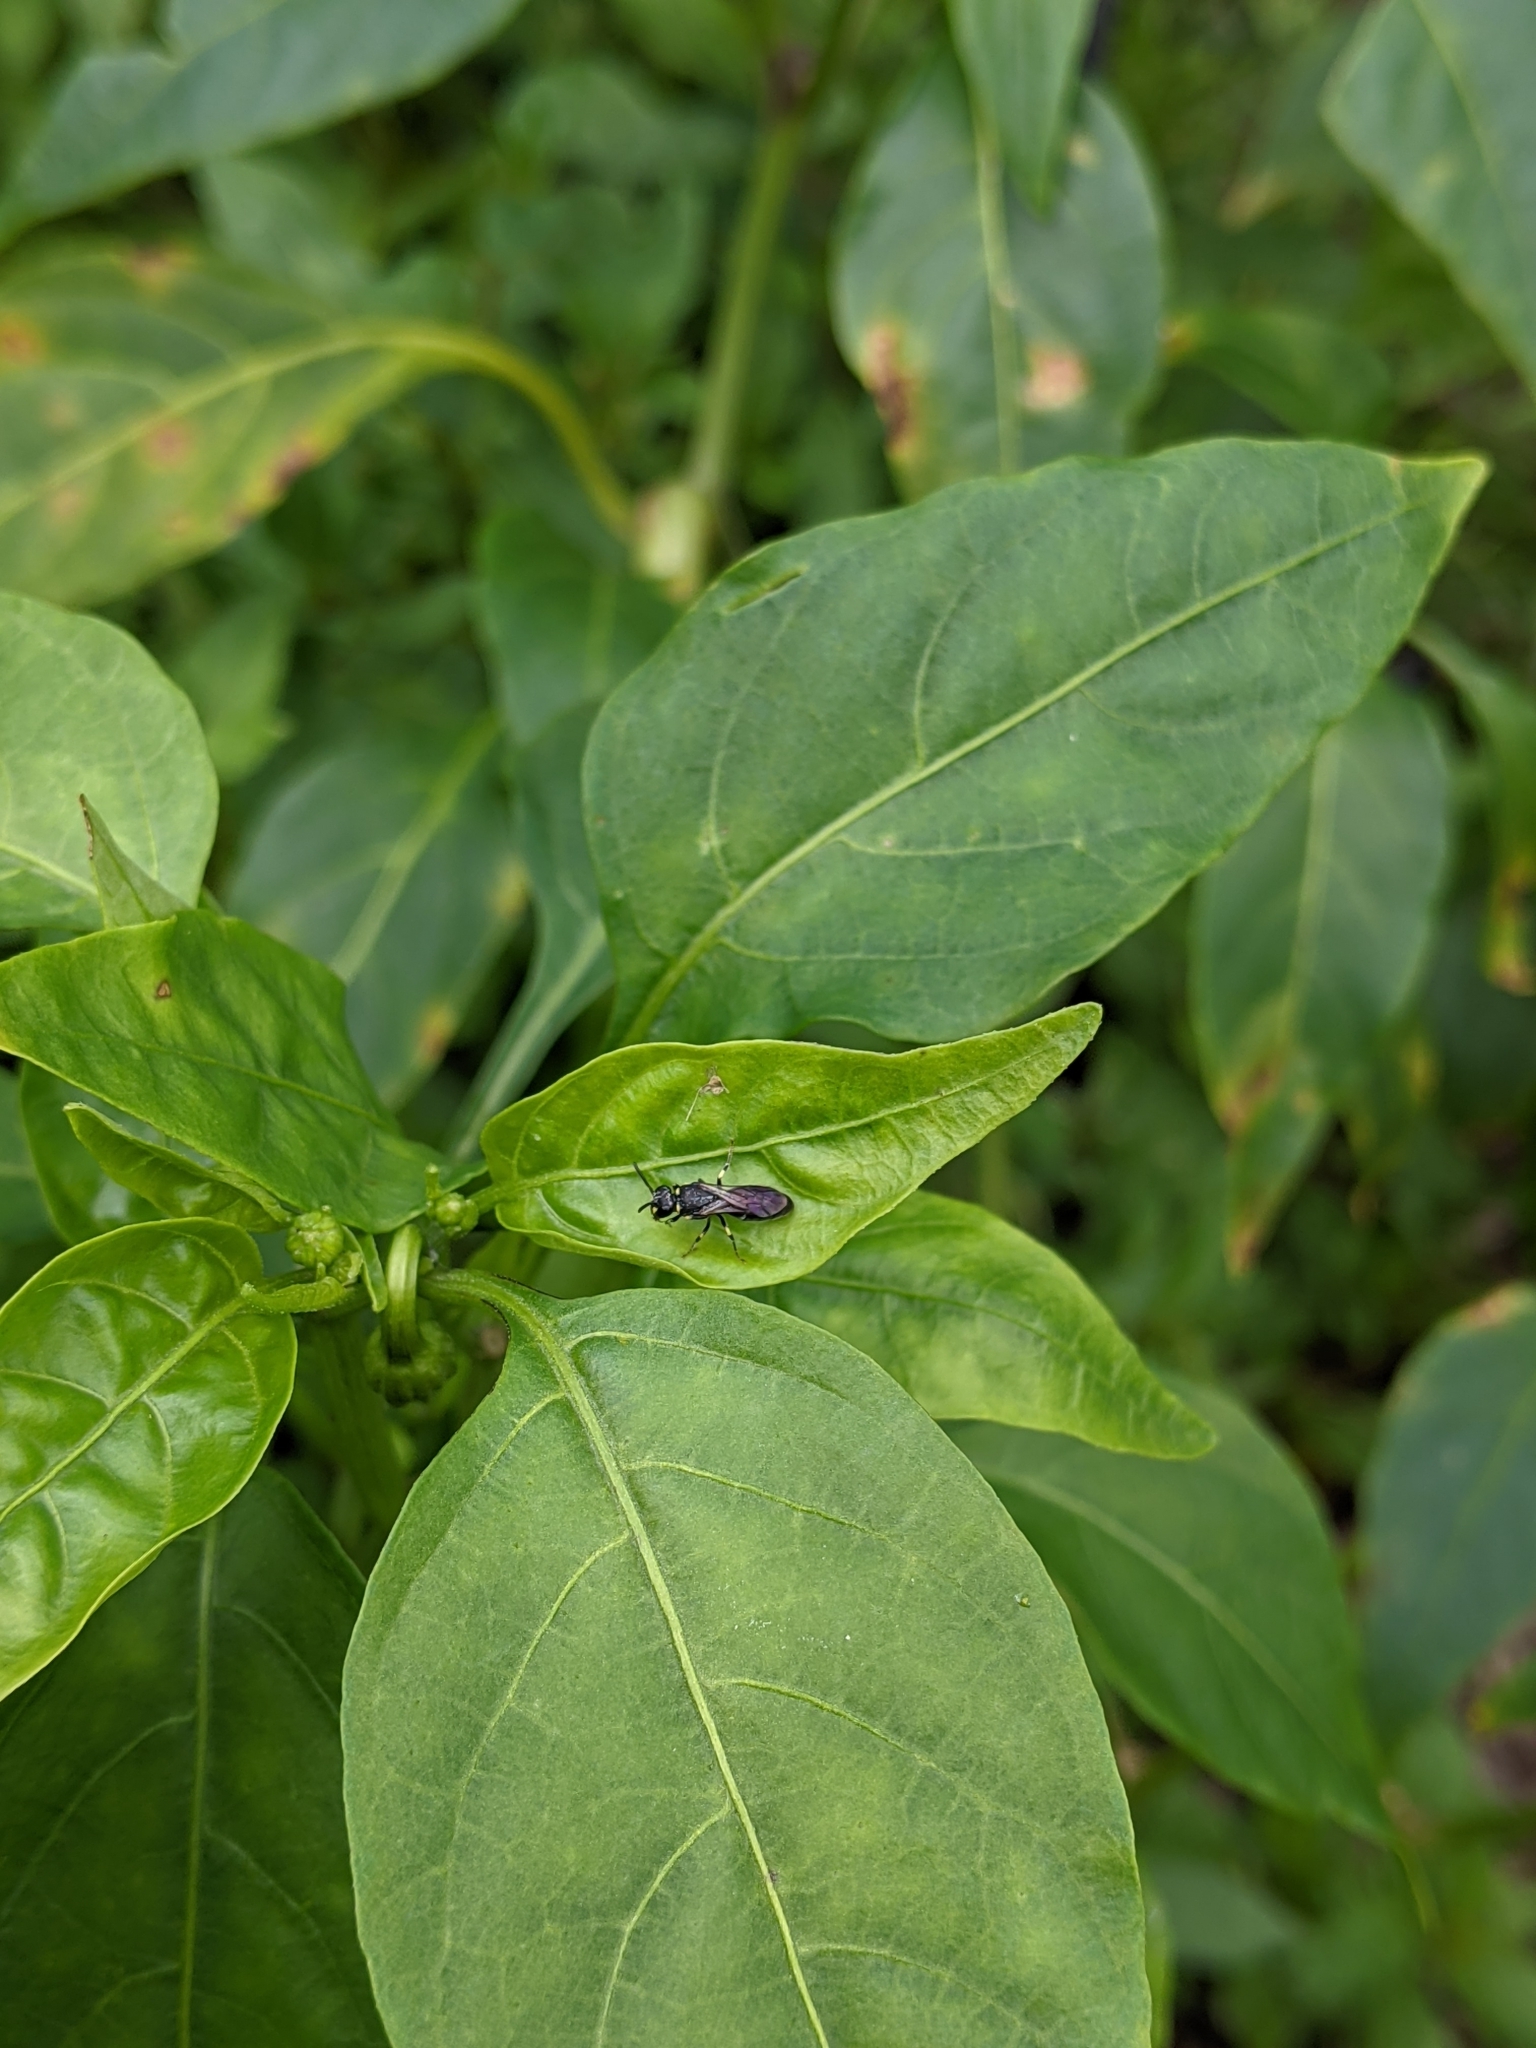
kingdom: Animalia
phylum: Arthropoda
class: Insecta
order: Hymenoptera
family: Colletidae
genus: Hylaeus
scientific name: Hylaeus modestus
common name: Yellow-faced bee
